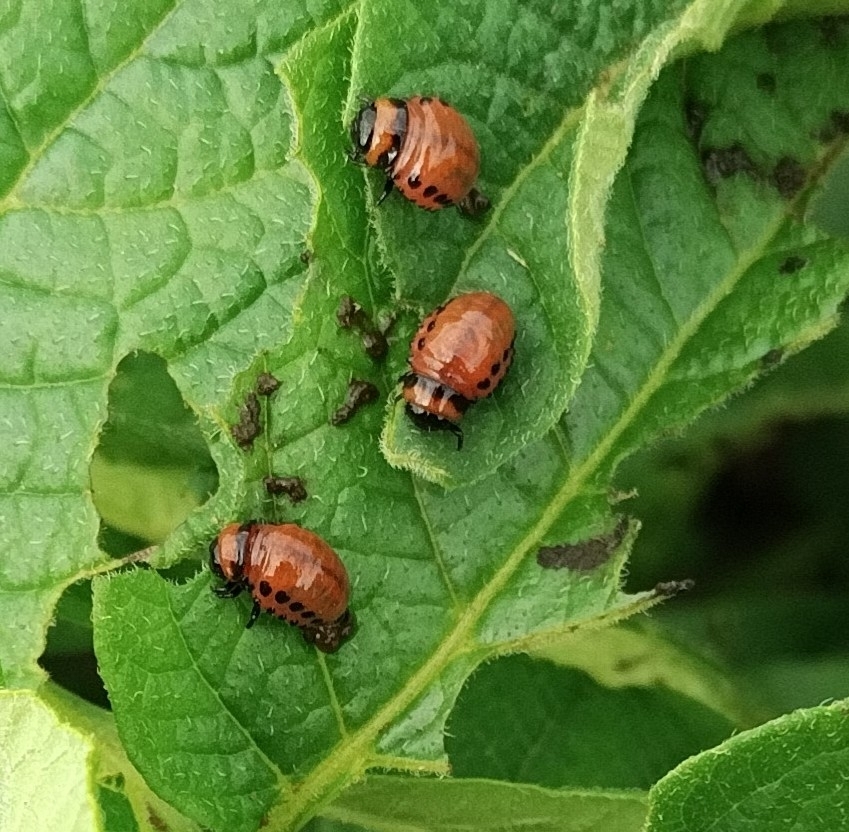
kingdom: Animalia
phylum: Arthropoda
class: Insecta
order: Coleoptera
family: Chrysomelidae
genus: Leptinotarsa
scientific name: Leptinotarsa decemlineata
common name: Colorado potato beetle
